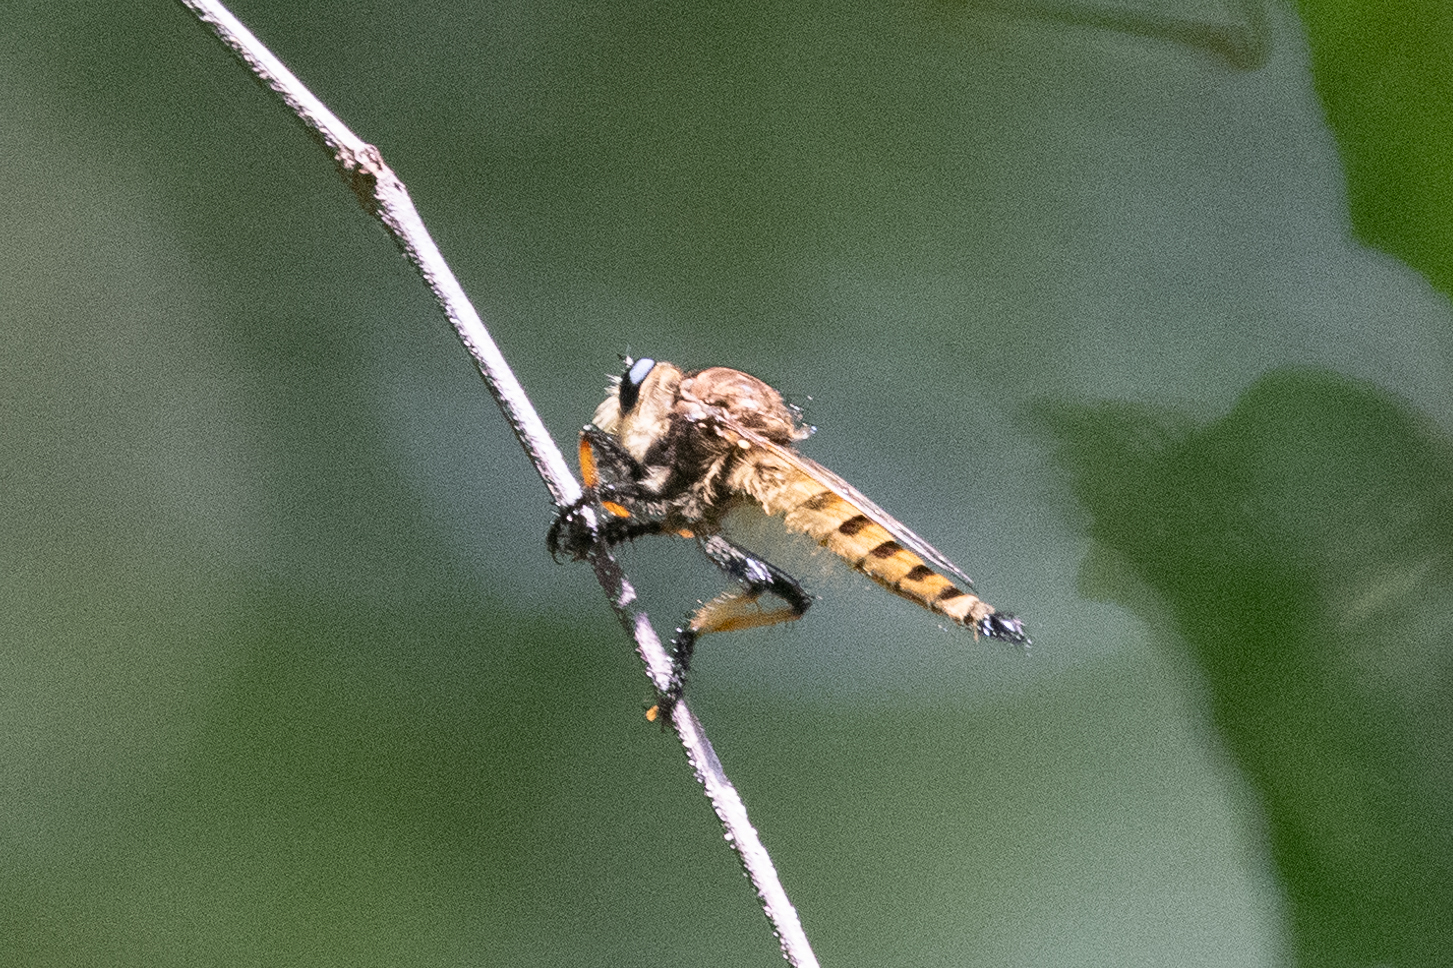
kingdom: Animalia
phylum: Arthropoda
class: Insecta
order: Diptera
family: Asilidae
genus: Promachus
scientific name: Promachus rufipes
